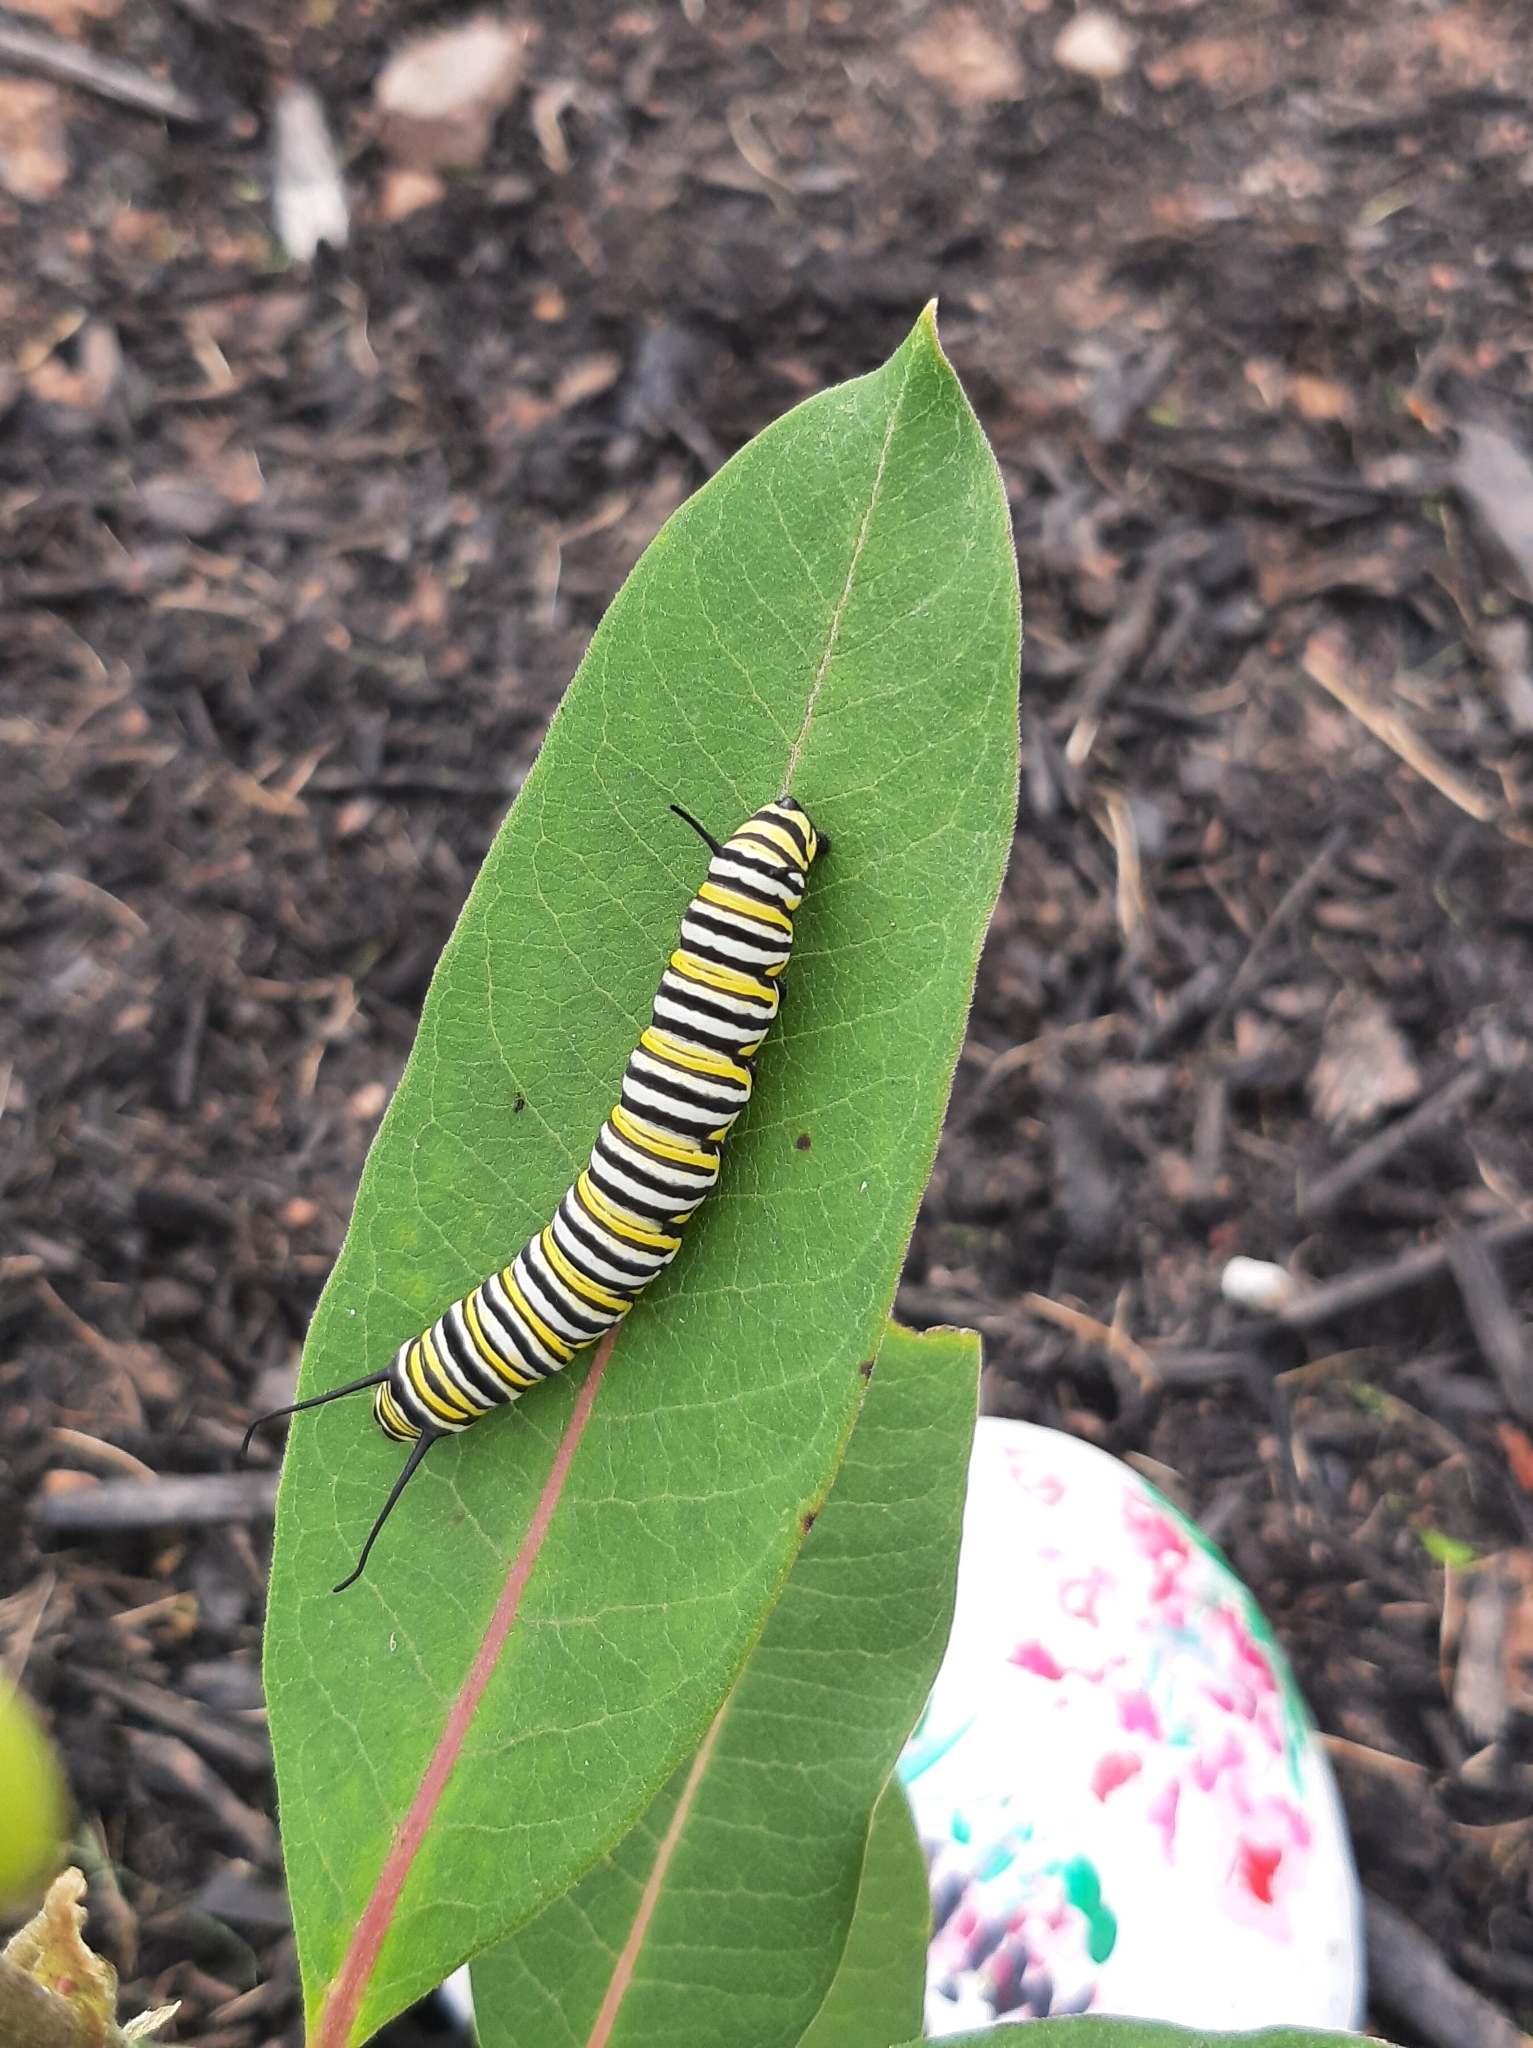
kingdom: Animalia
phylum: Arthropoda
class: Insecta
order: Lepidoptera
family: Nymphalidae
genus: Danaus
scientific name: Danaus plexippus
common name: Monarch
